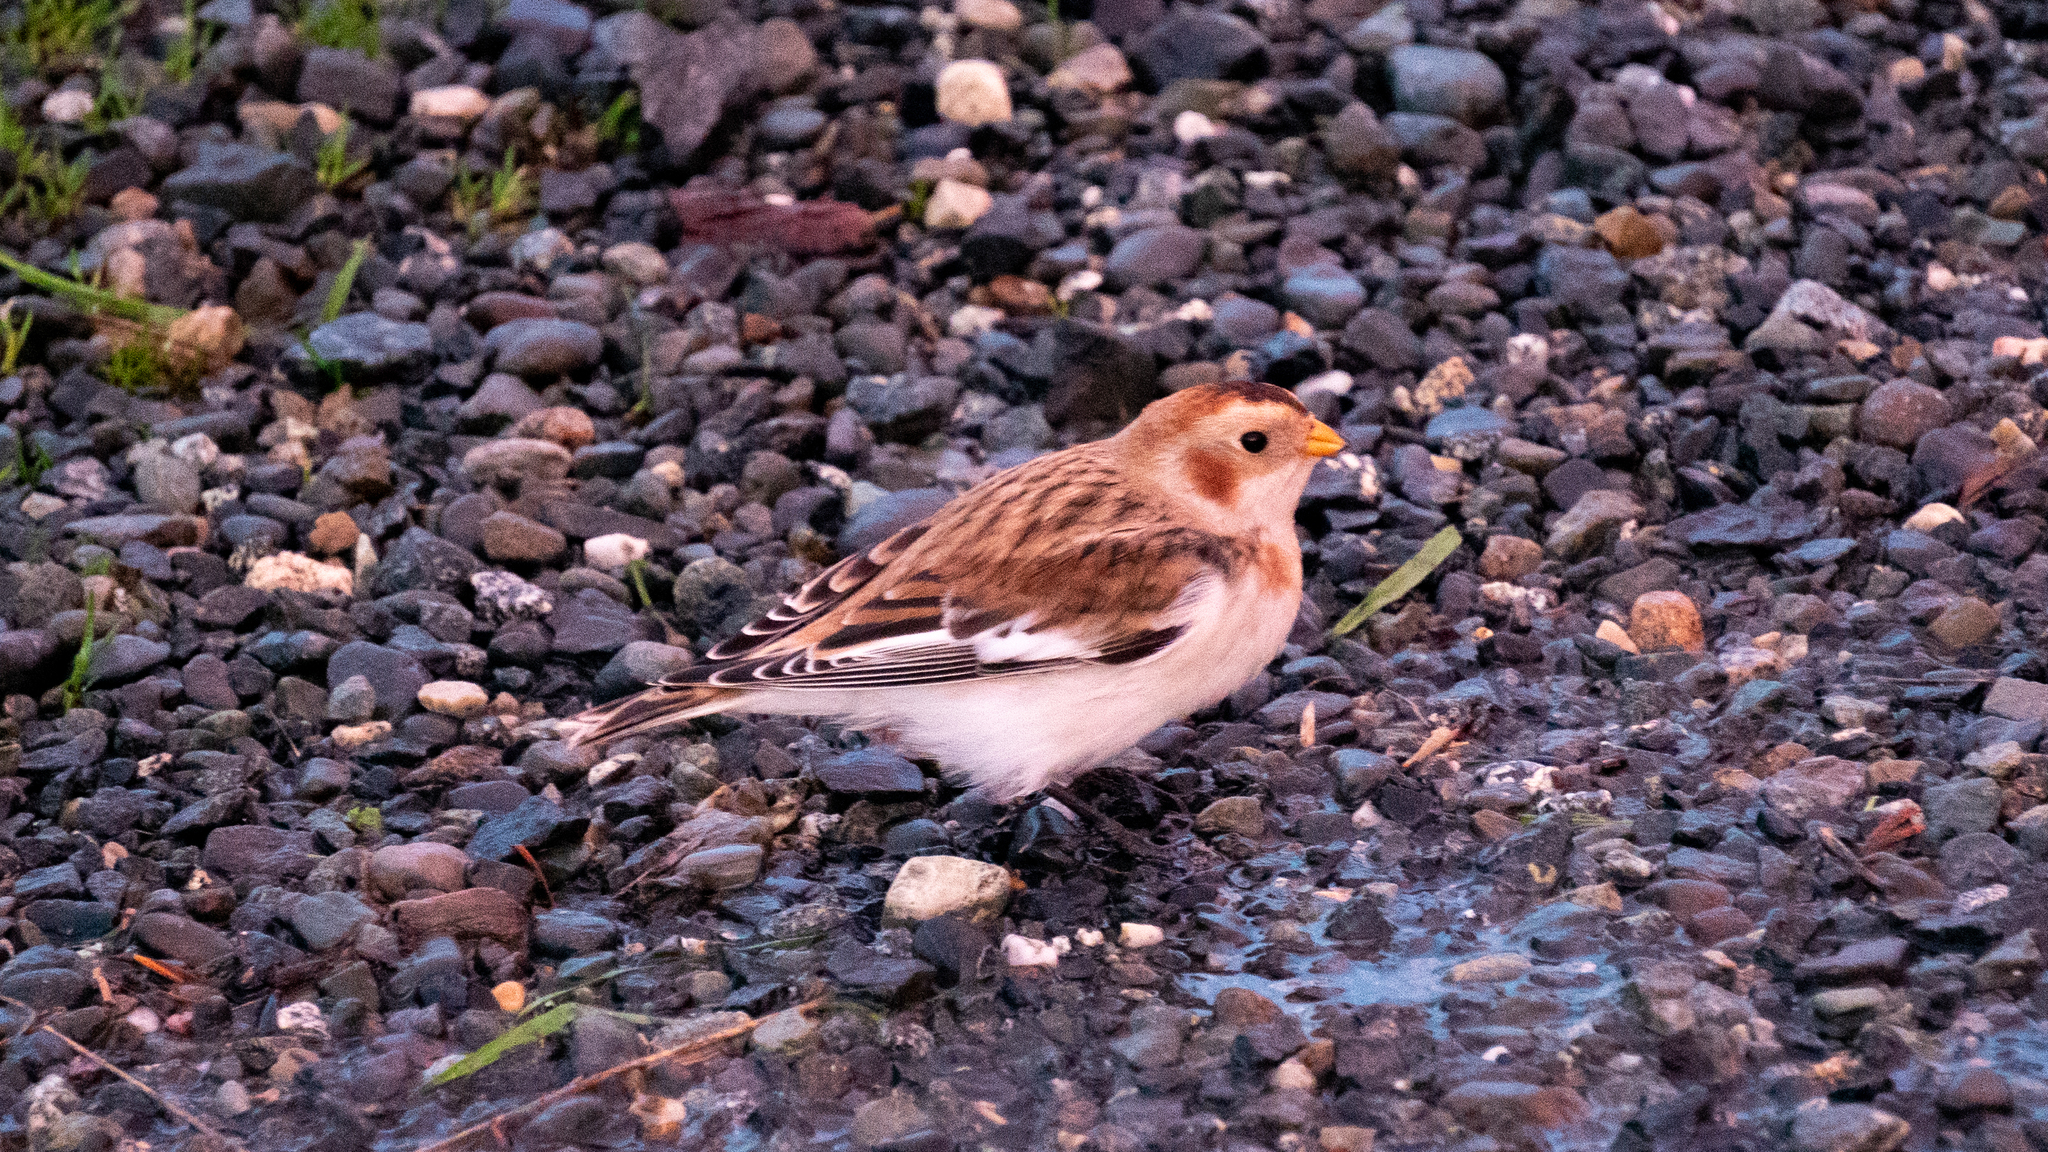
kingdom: Animalia
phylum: Chordata
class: Aves
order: Passeriformes
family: Calcariidae
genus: Plectrophenax
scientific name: Plectrophenax nivalis
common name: Snow bunting
